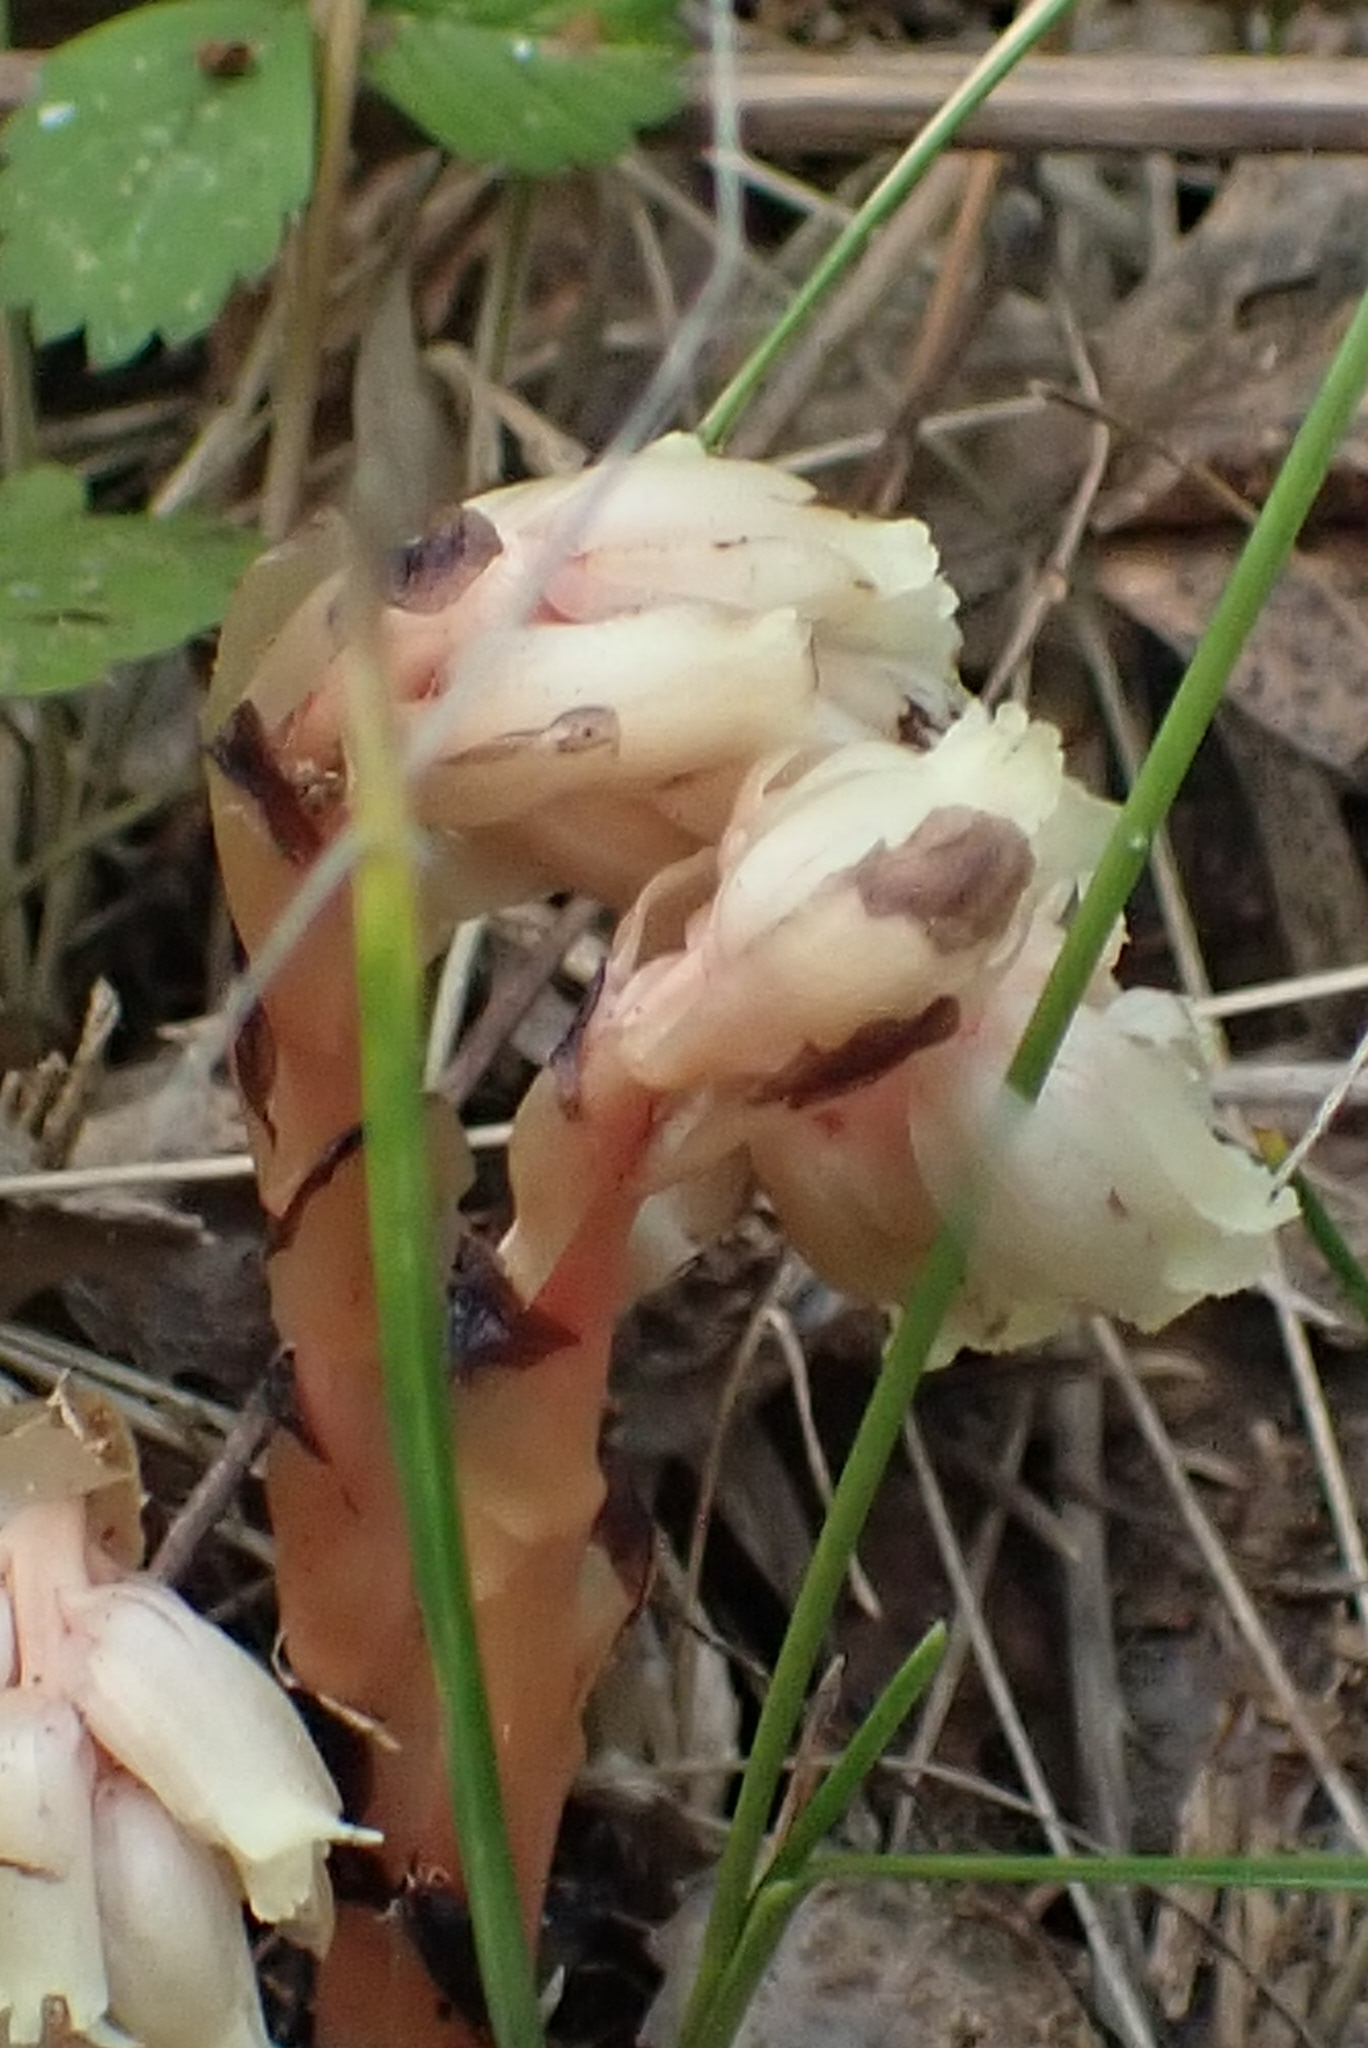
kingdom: Plantae
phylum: Tracheophyta
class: Magnoliopsida
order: Ericales
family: Ericaceae
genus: Hypopitys
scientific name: Hypopitys monotropa
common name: Yellow bird's-nest
